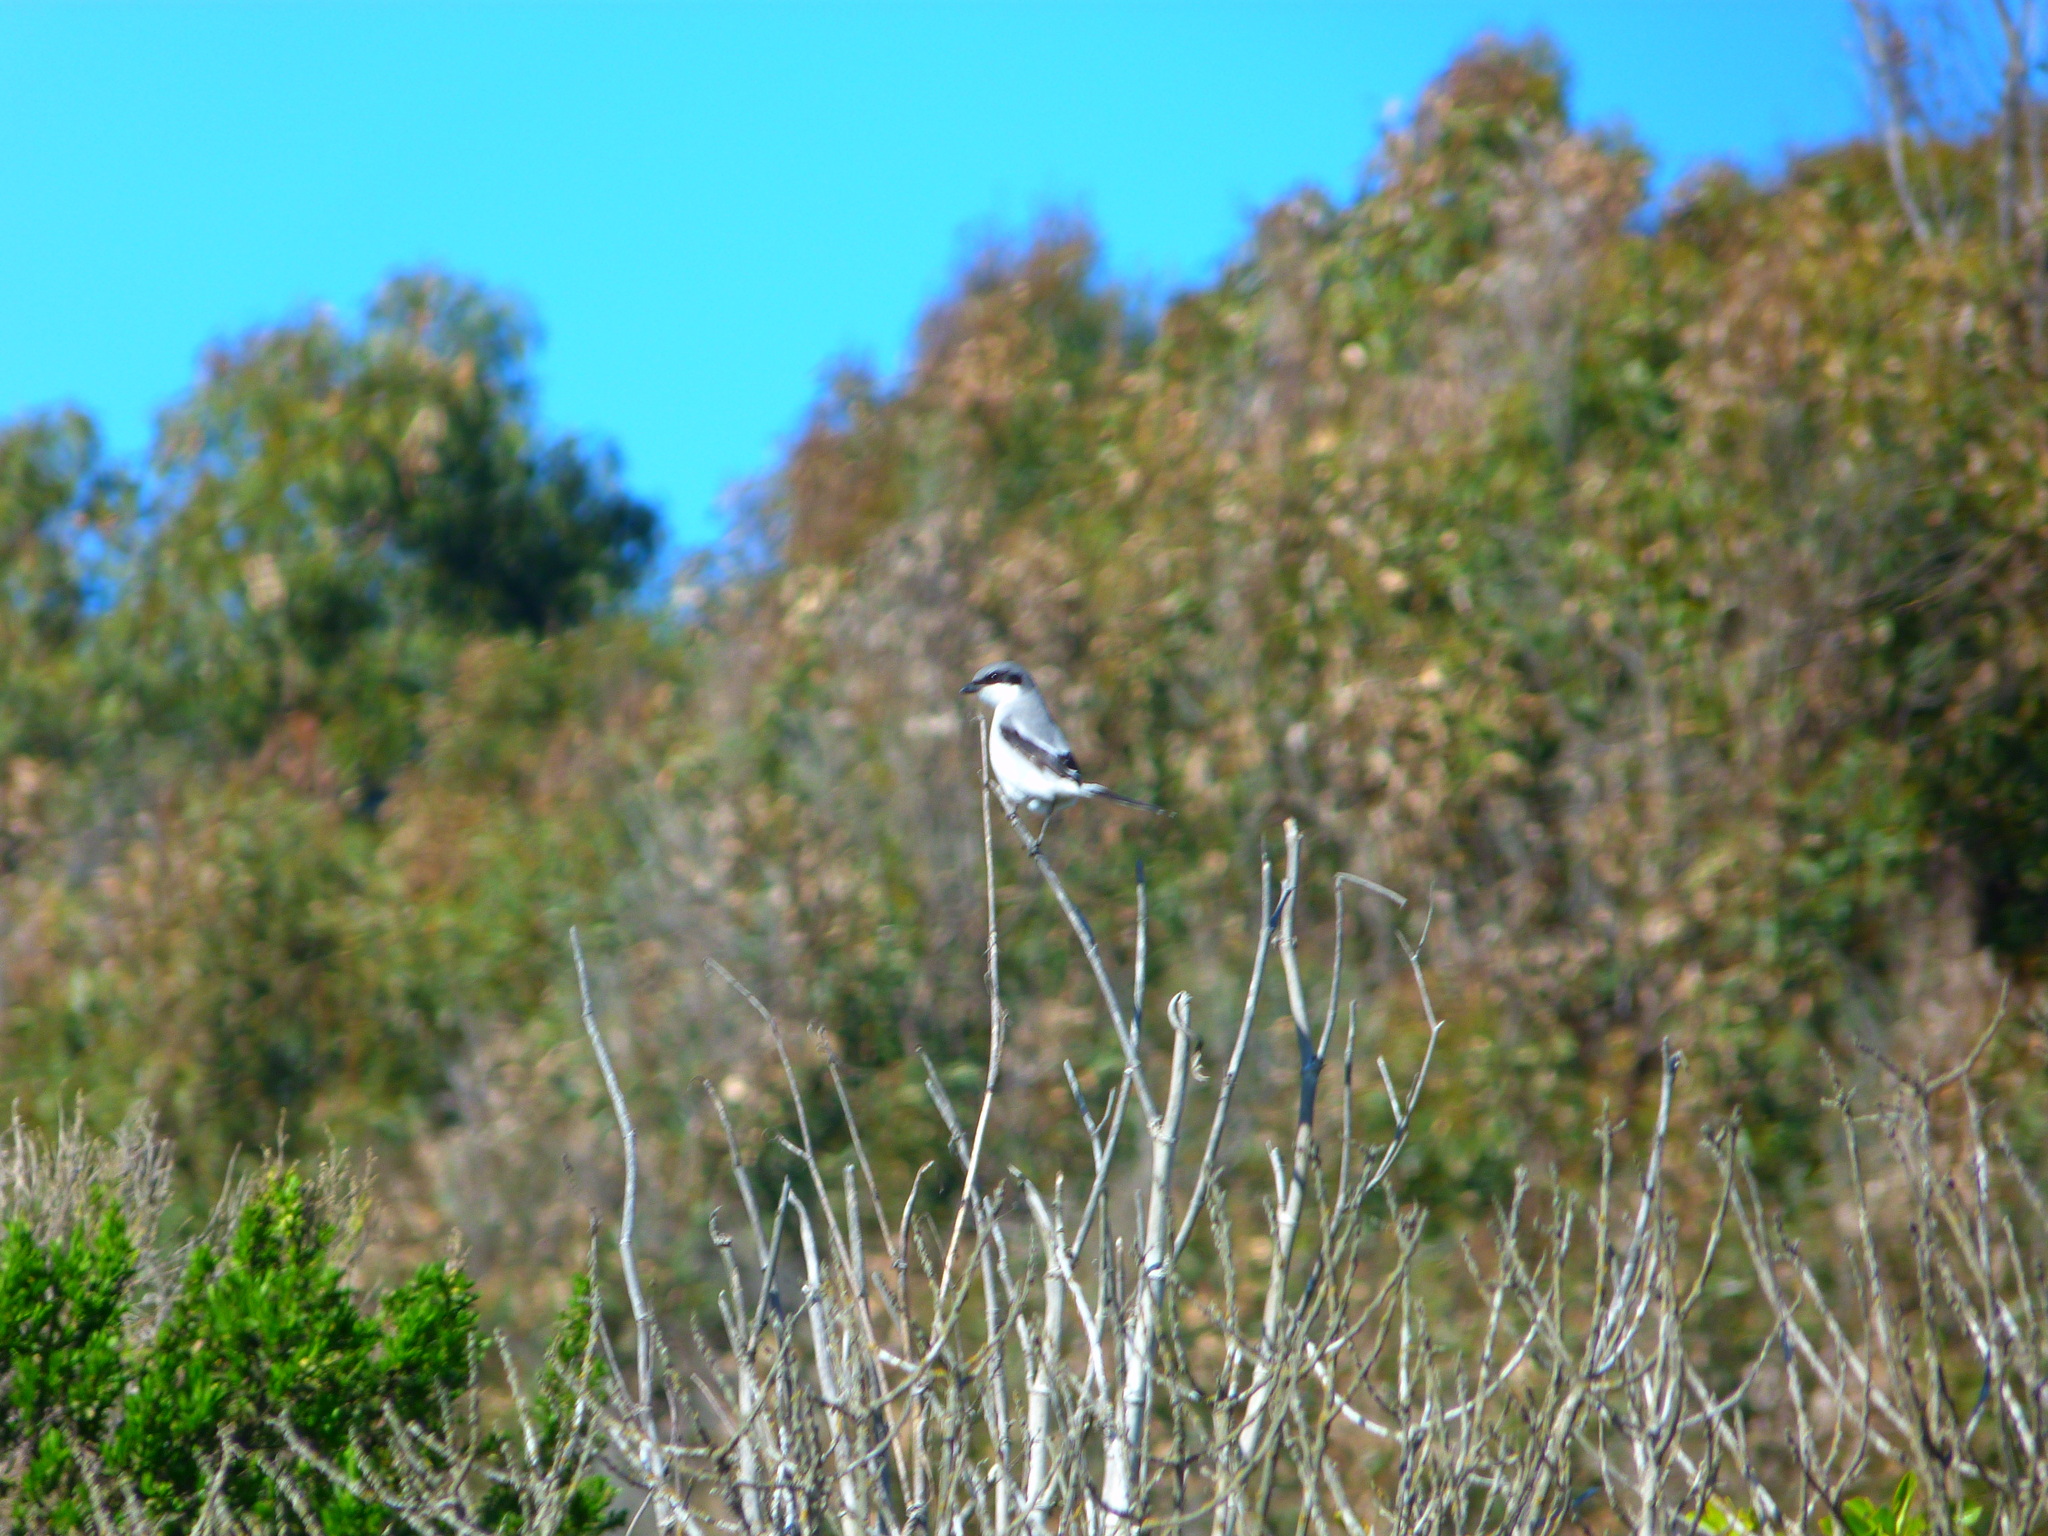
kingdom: Animalia
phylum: Chordata
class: Aves
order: Passeriformes
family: Laniidae
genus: Lanius
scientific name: Lanius ludovicianus
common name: Loggerhead shrike
